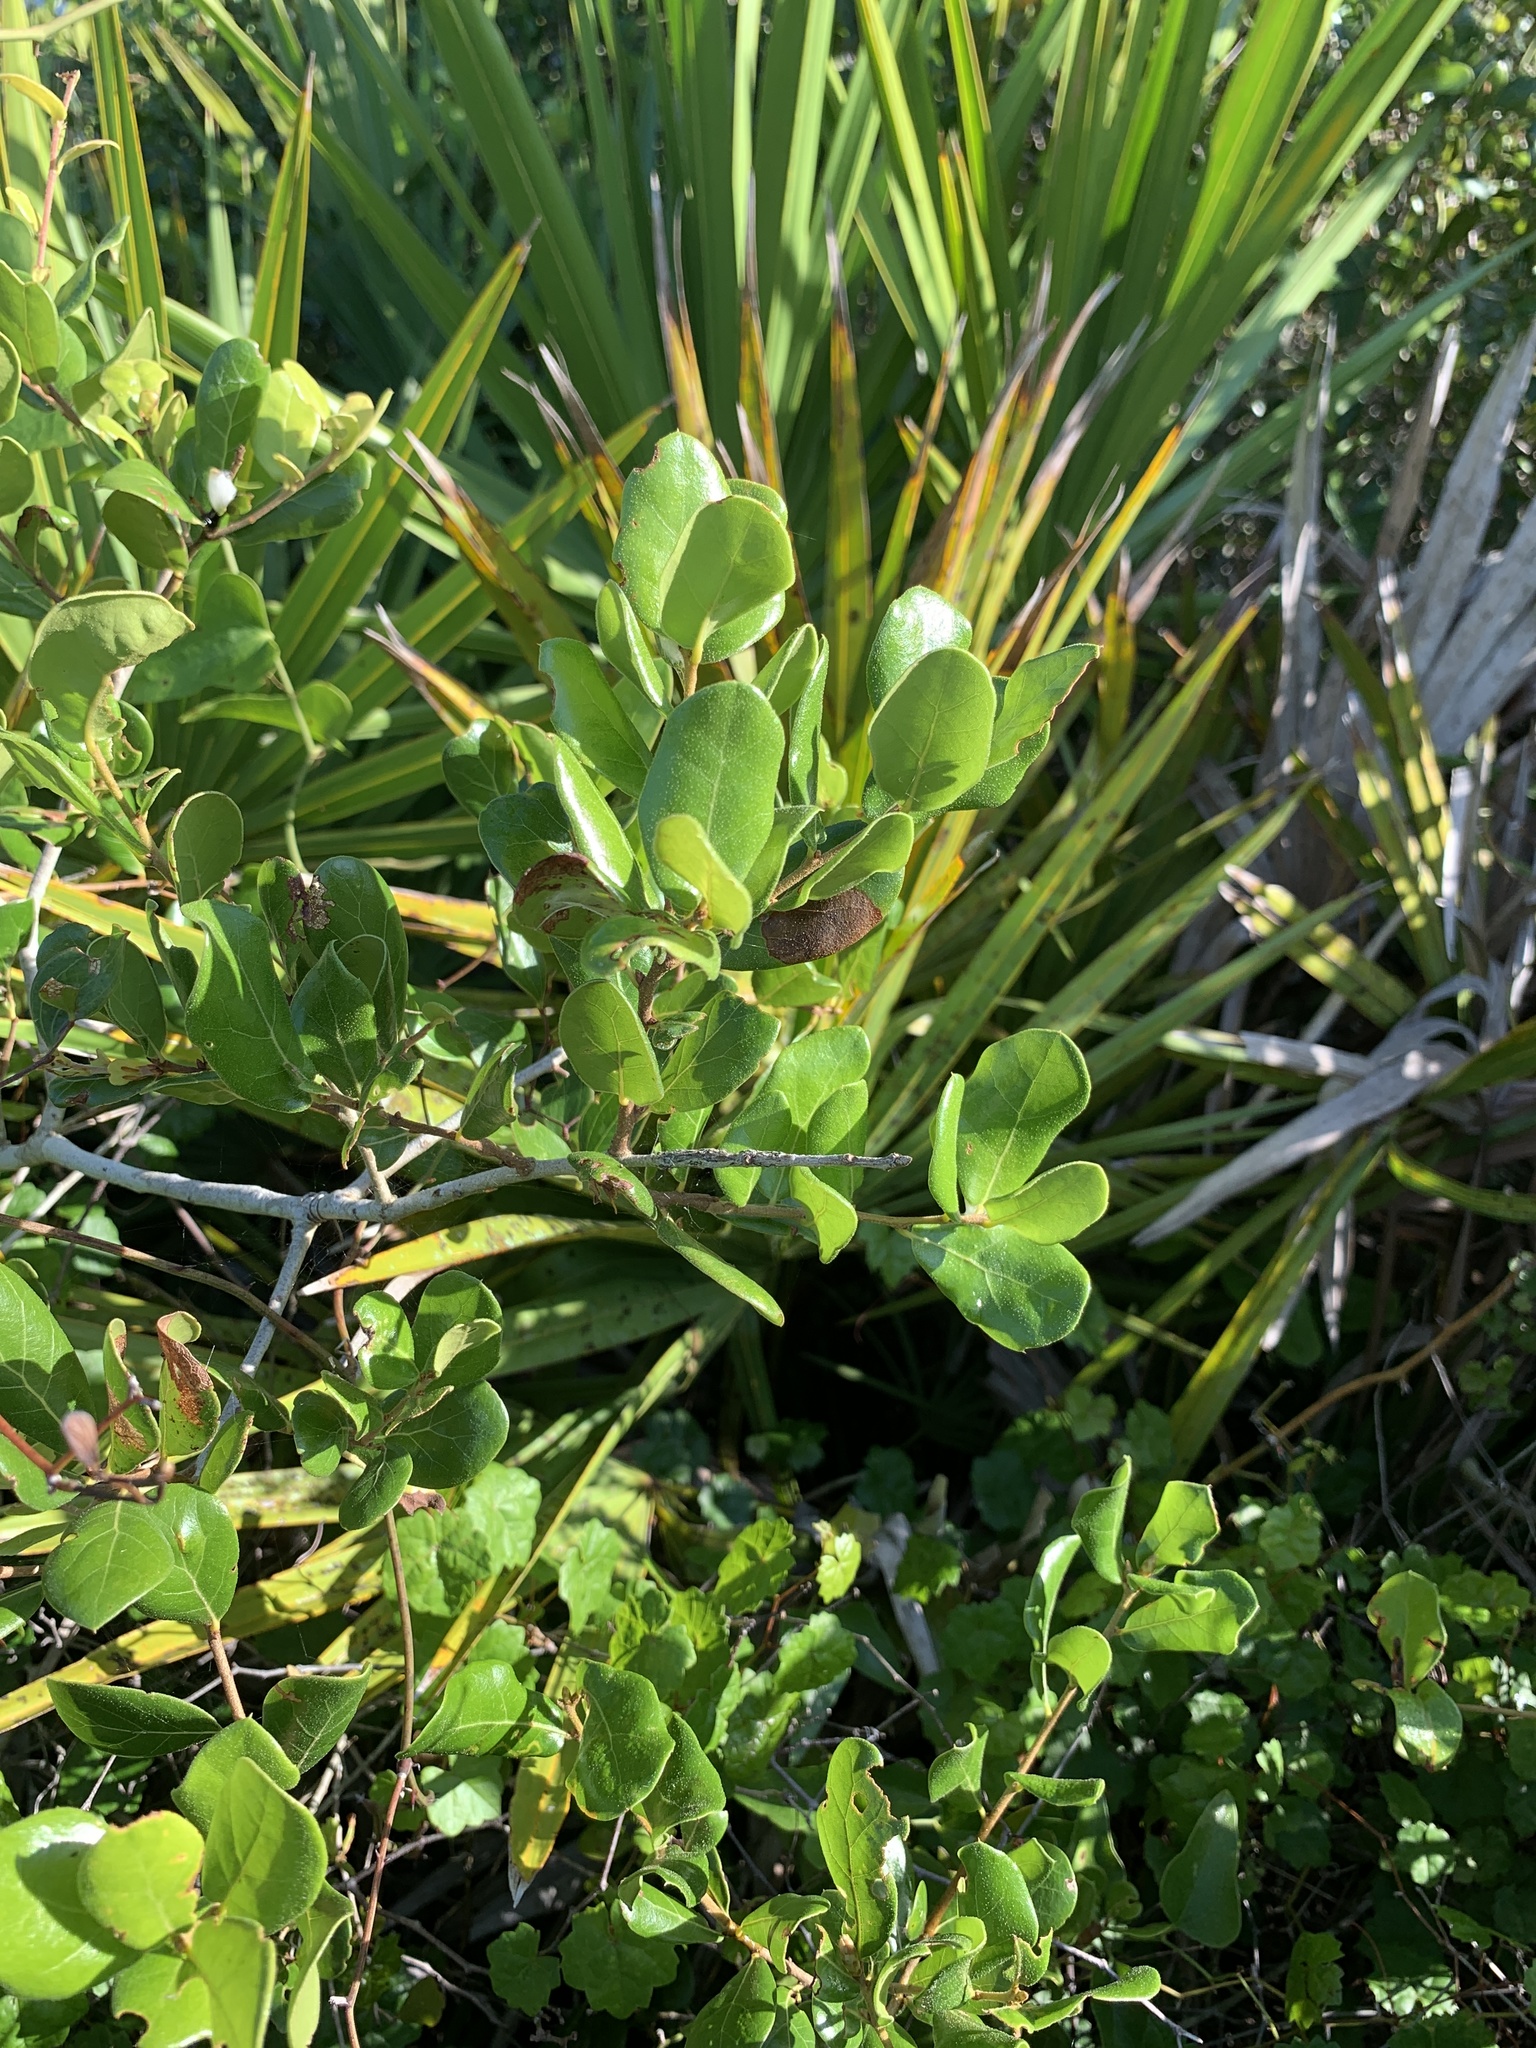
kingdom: Plantae
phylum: Tracheophyta
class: Magnoliopsida
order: Fagales
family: Fagaceae
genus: Quercus
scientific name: Quercus myrtifolia
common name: Myrtle oak
